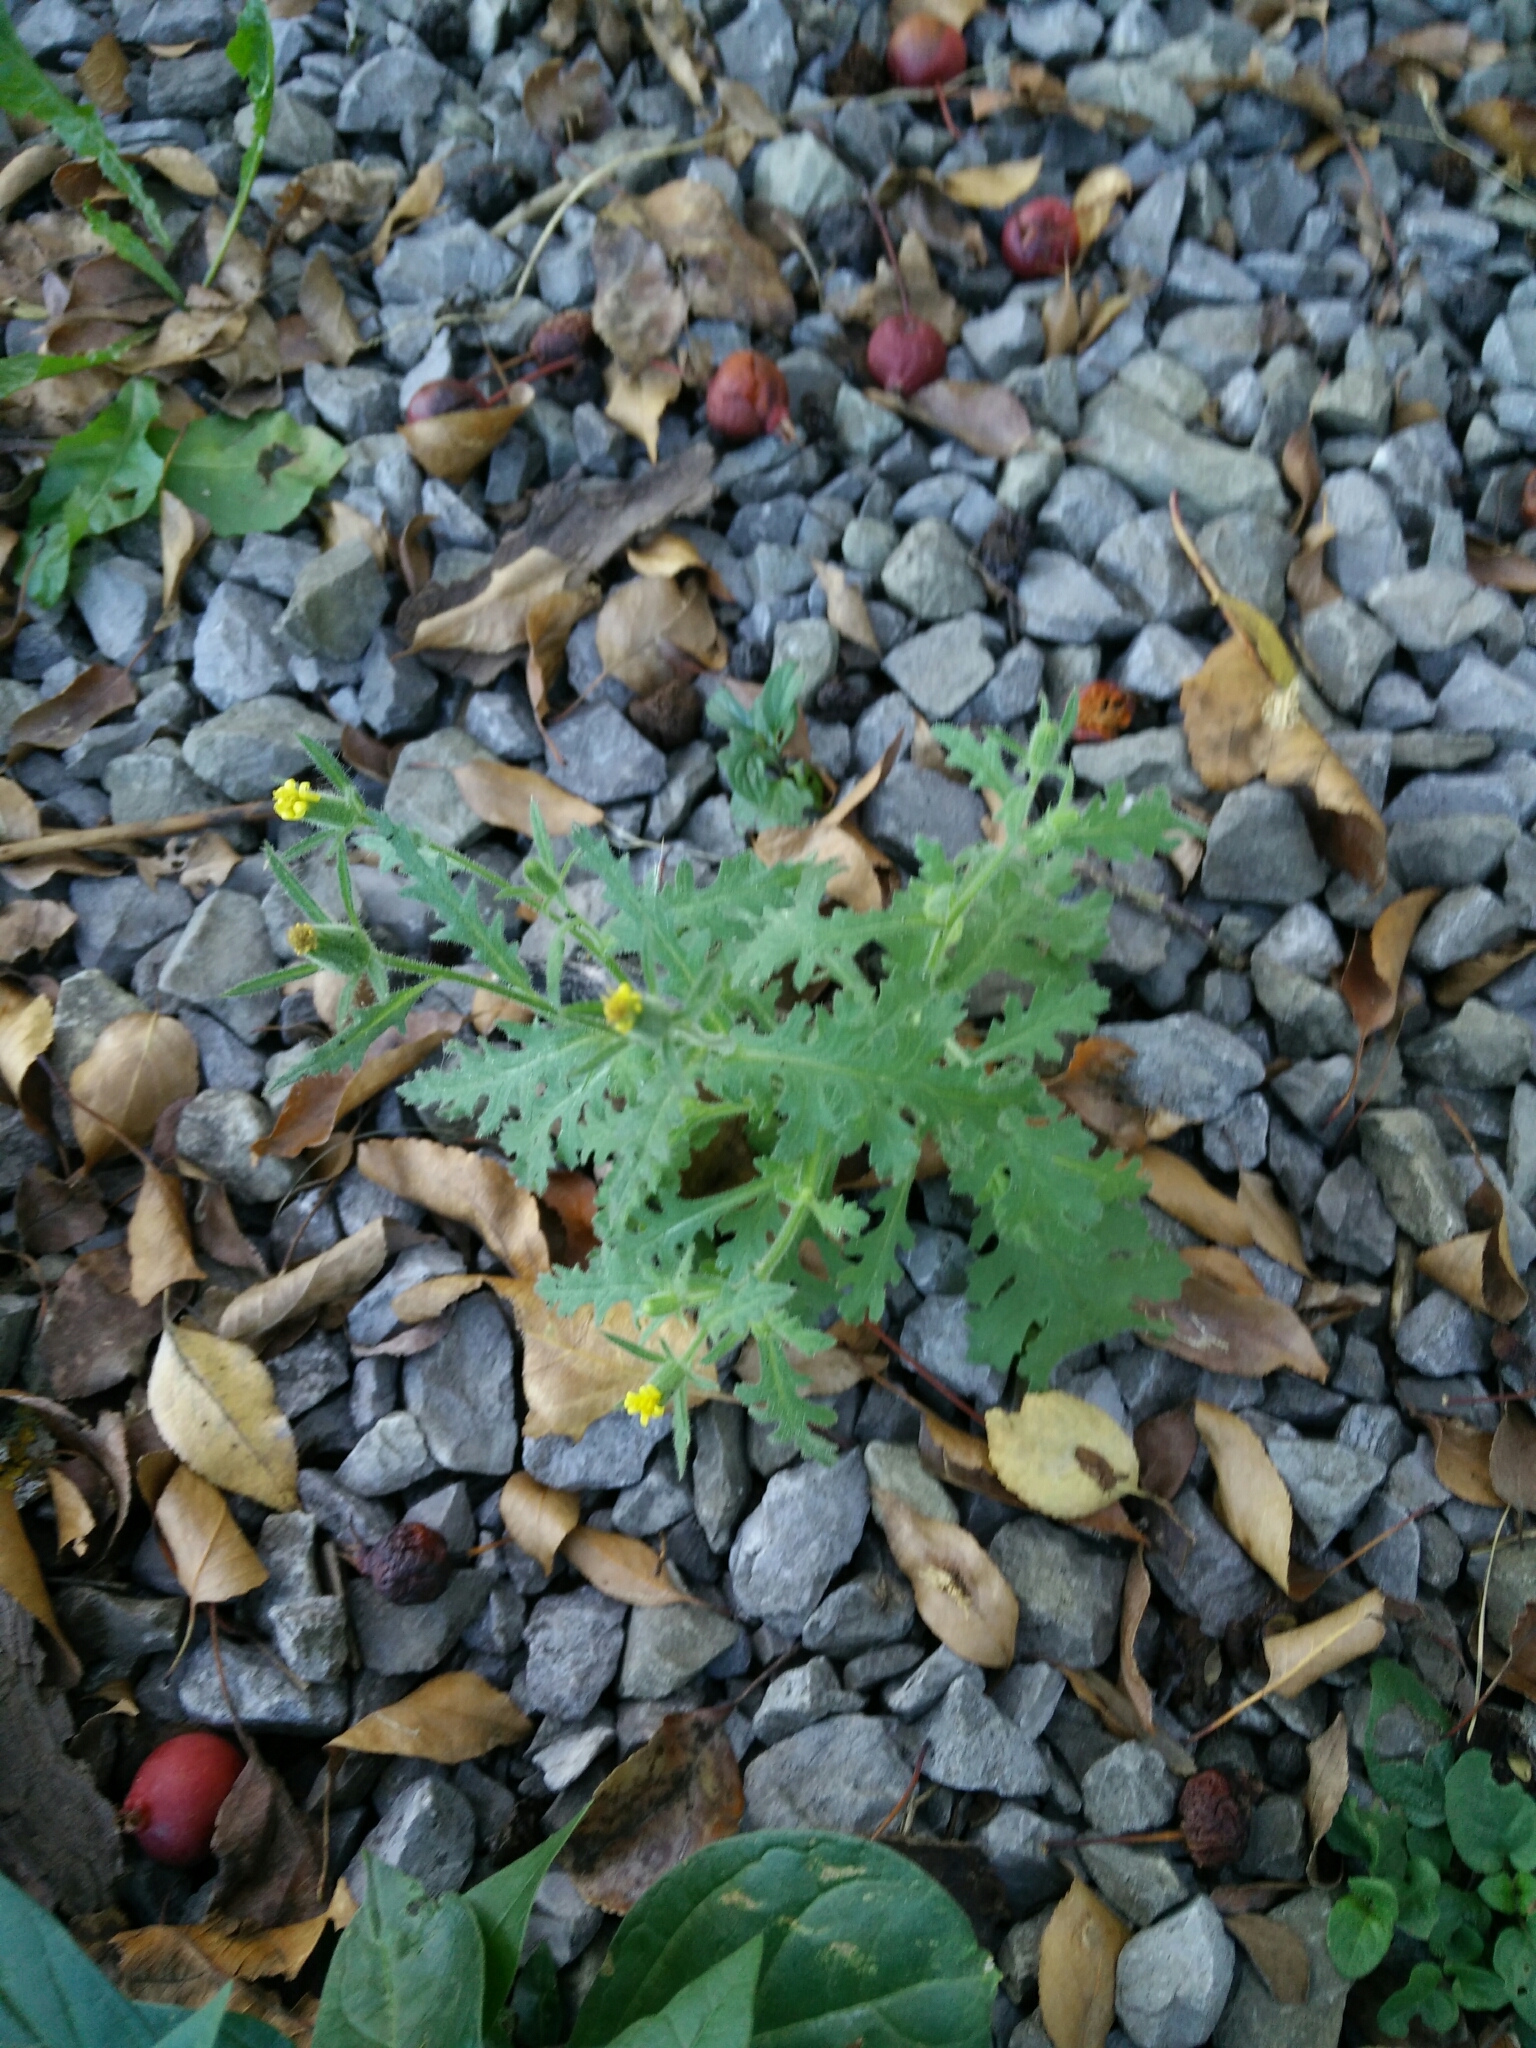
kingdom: Plantae
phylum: Tracheophyta
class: Magnoliopsida
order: Asterales
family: Asteraceae
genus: Senecio
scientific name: Senecio viscosus
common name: Sticky groundsel
